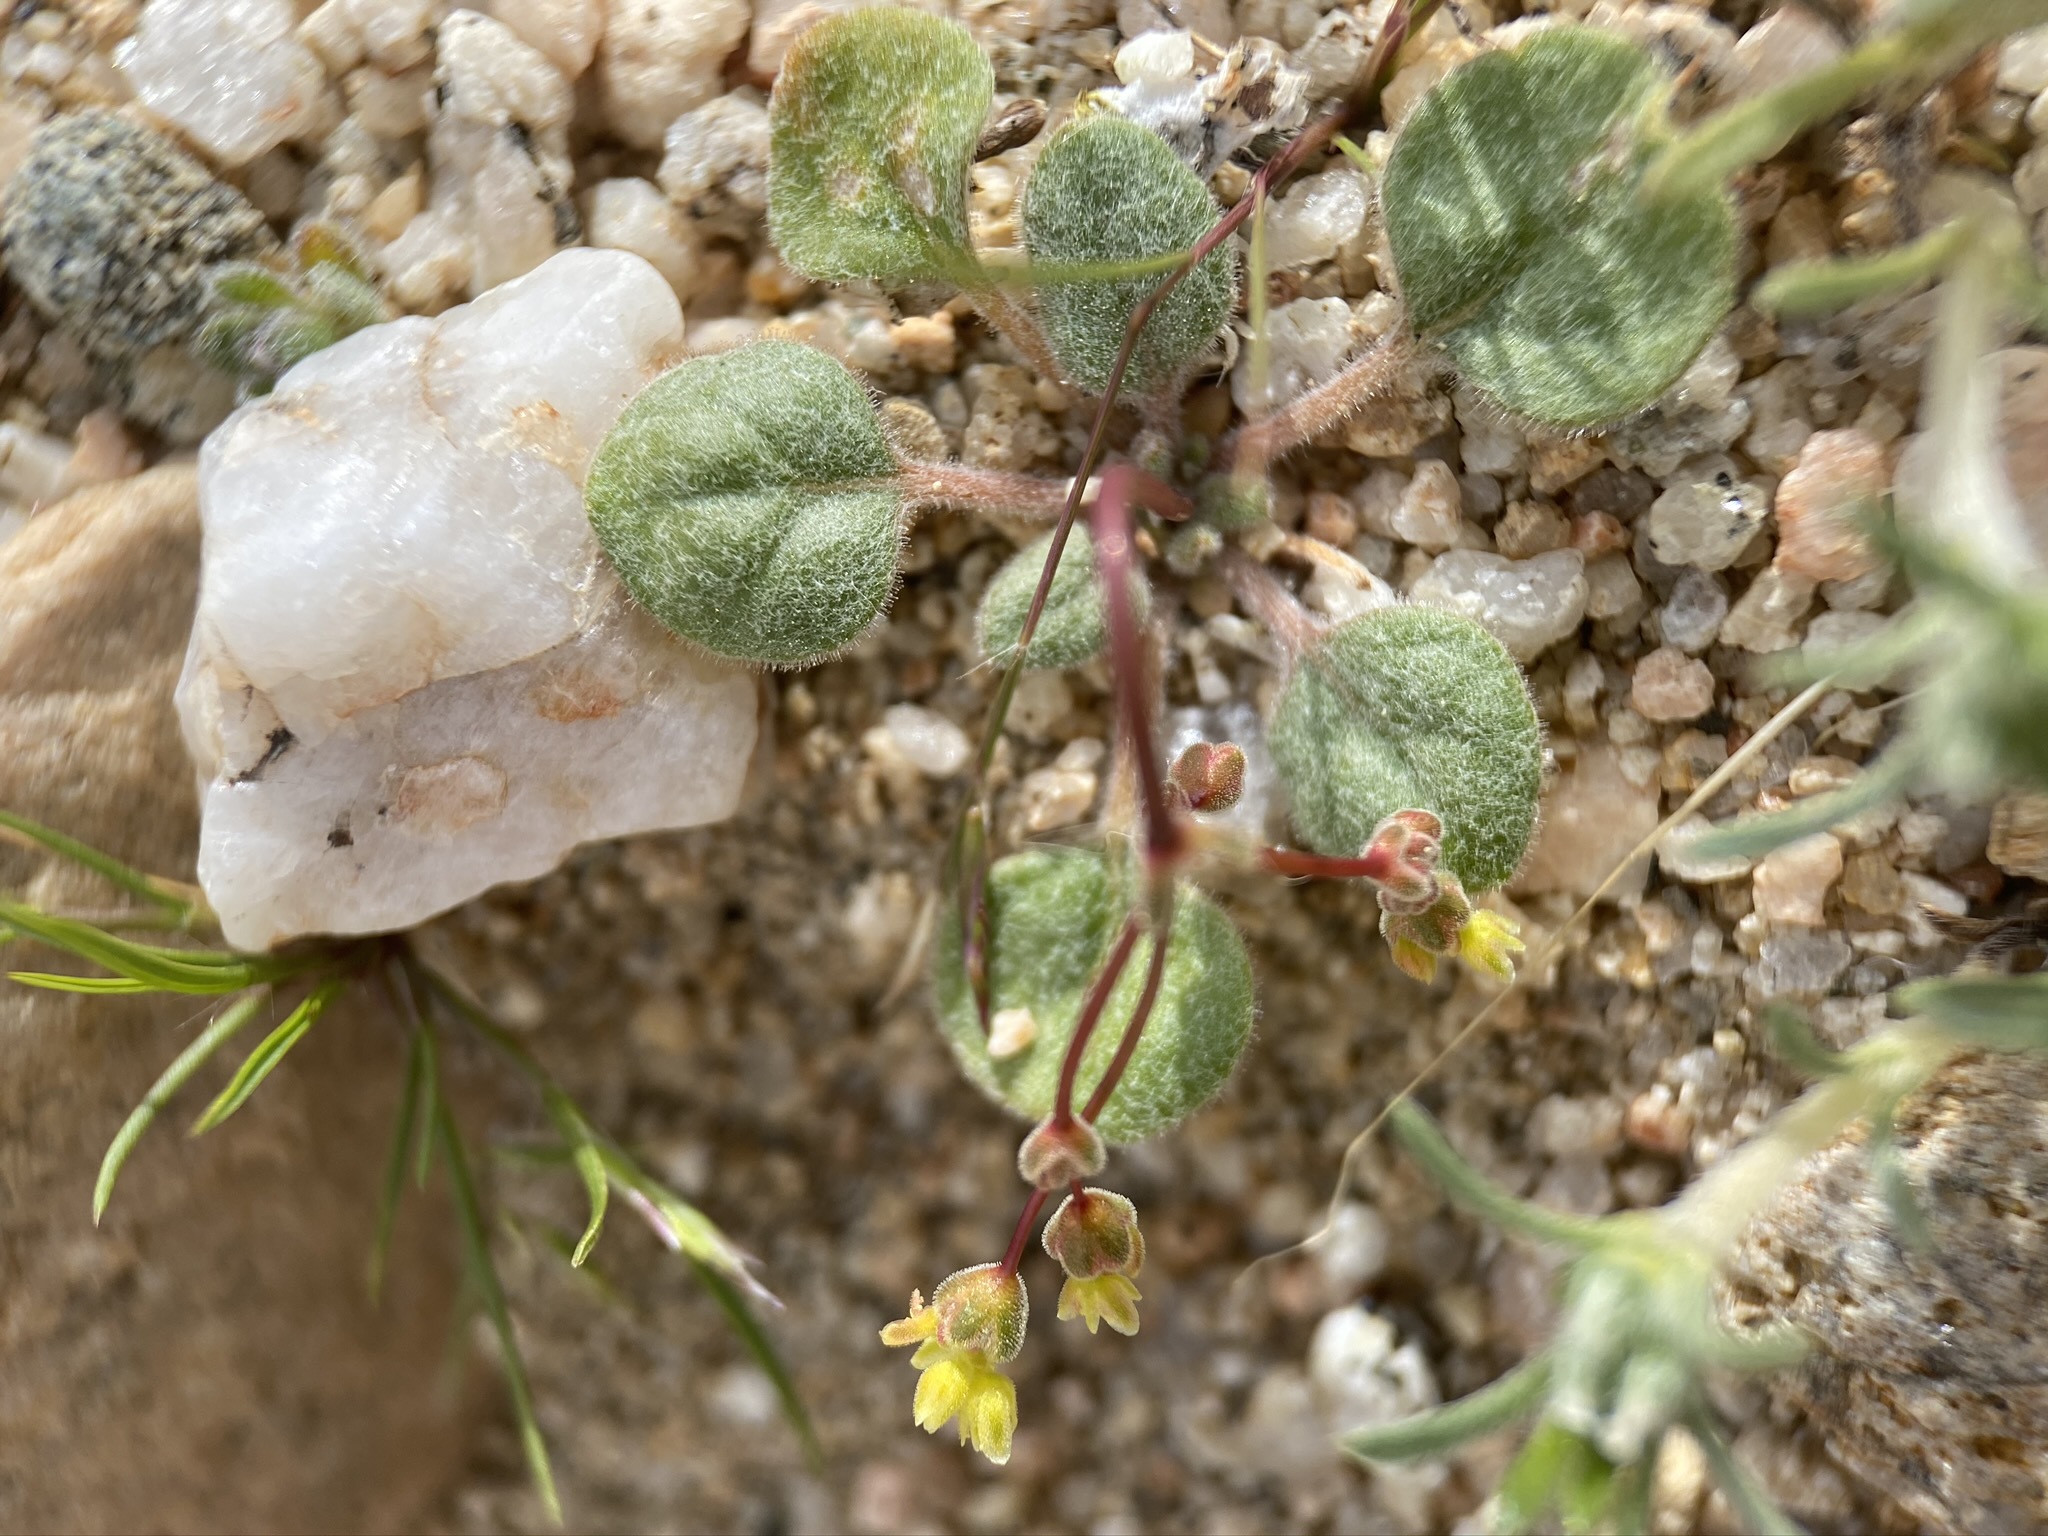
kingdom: Plantae
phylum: Tracheophyta
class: Magnoliopsida
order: Caryophyllales
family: Polygonaceae
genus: Eriogonum
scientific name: Eriogonum pusillum
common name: Yellow turbans
